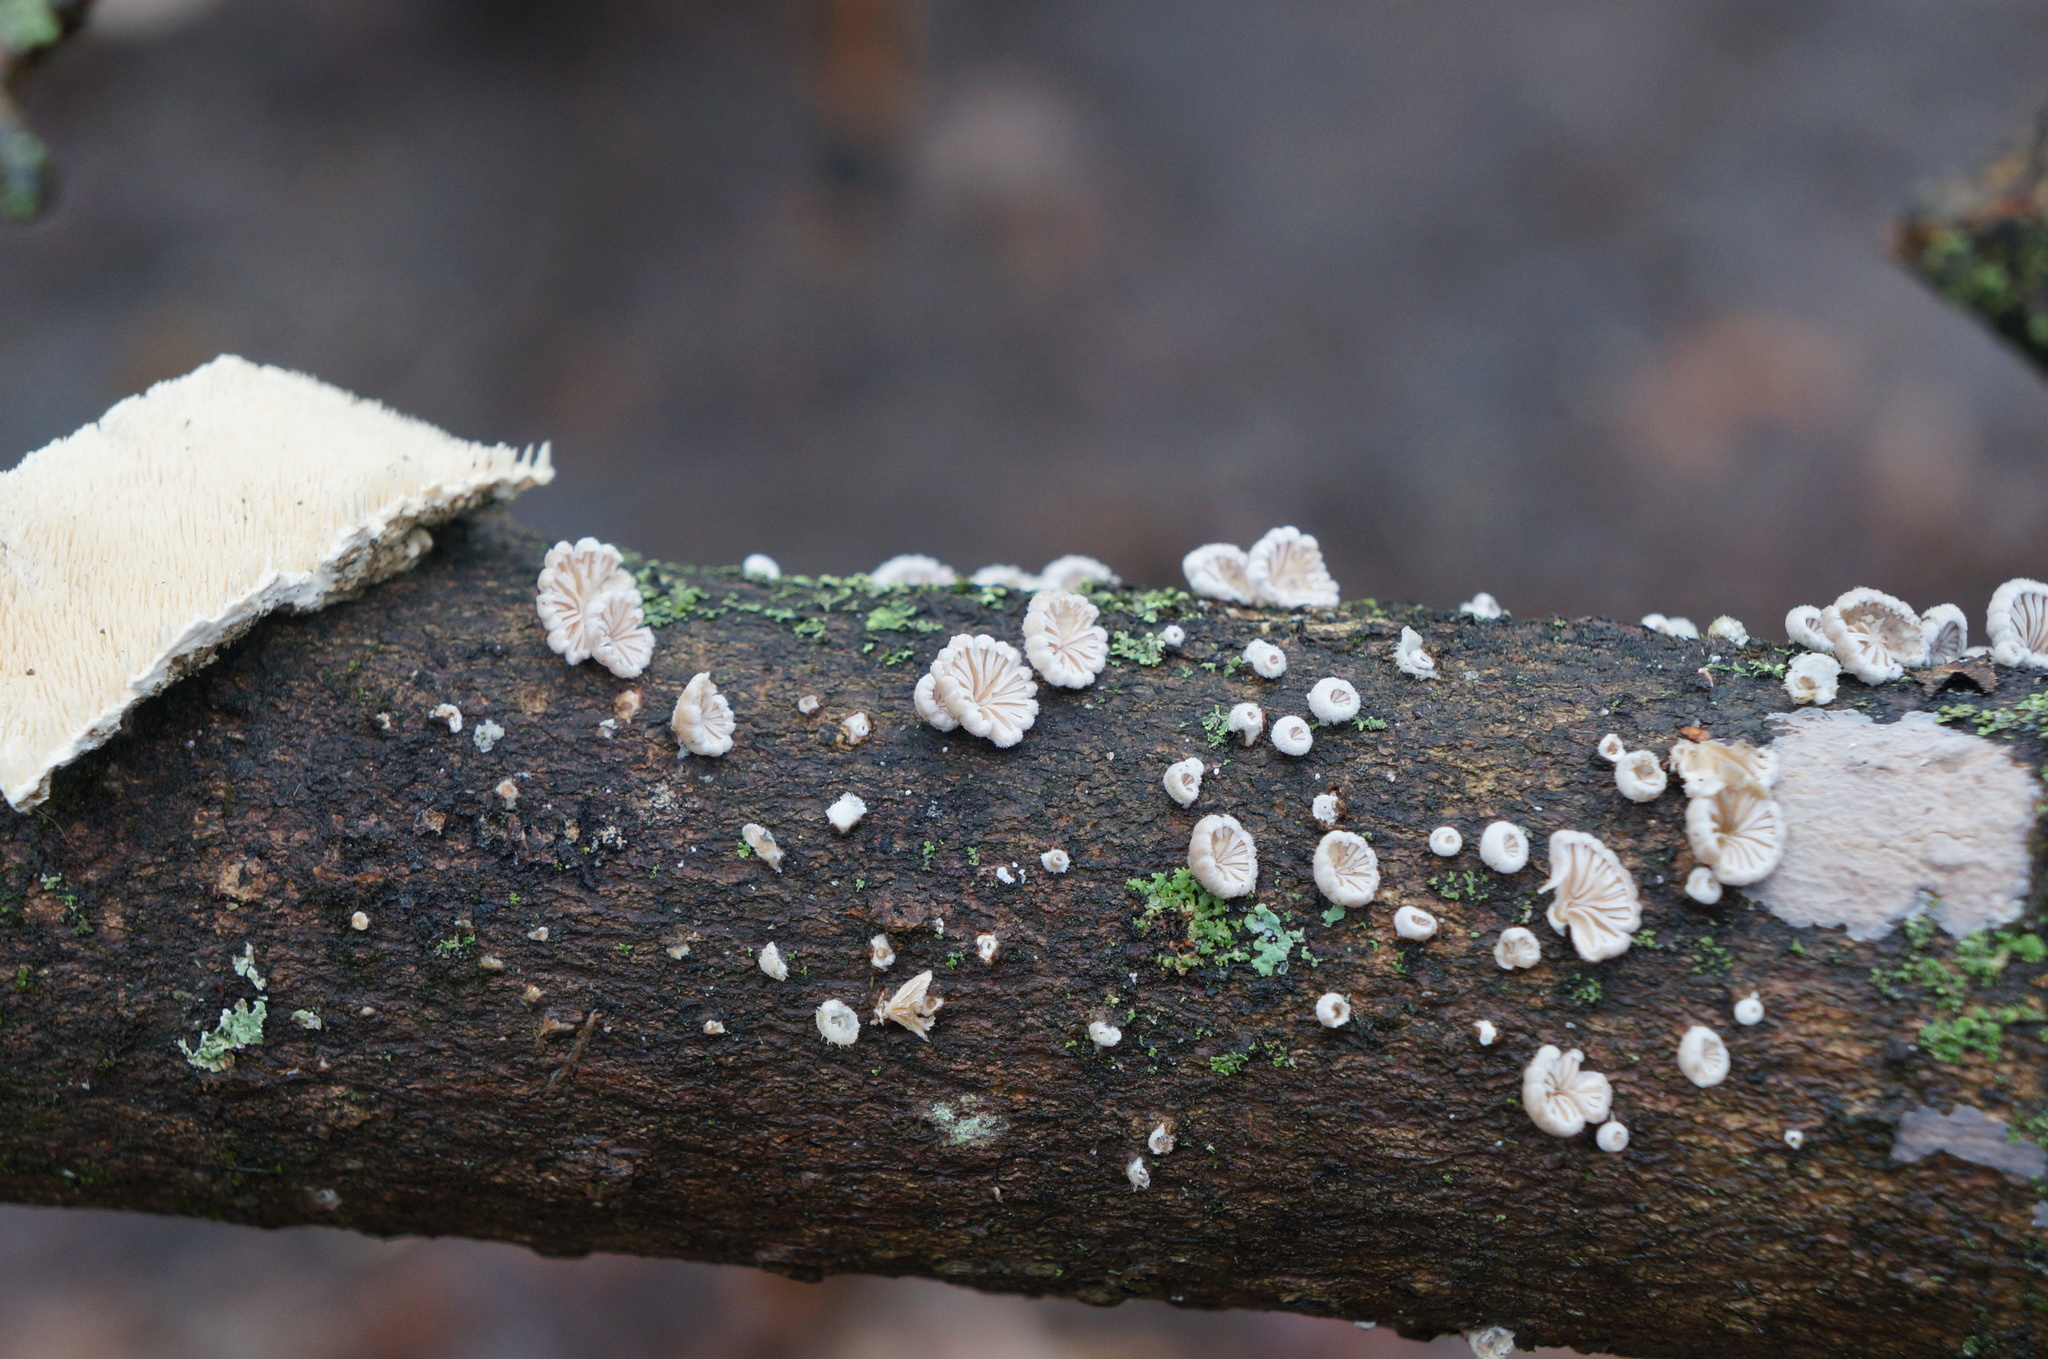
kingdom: Fungi
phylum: Basidiomycota
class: Agaricomycetes
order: Agaricales
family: Schizophyllaceae
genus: Schizophyllum
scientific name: Schizophyllum commune
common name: Common porecrust
